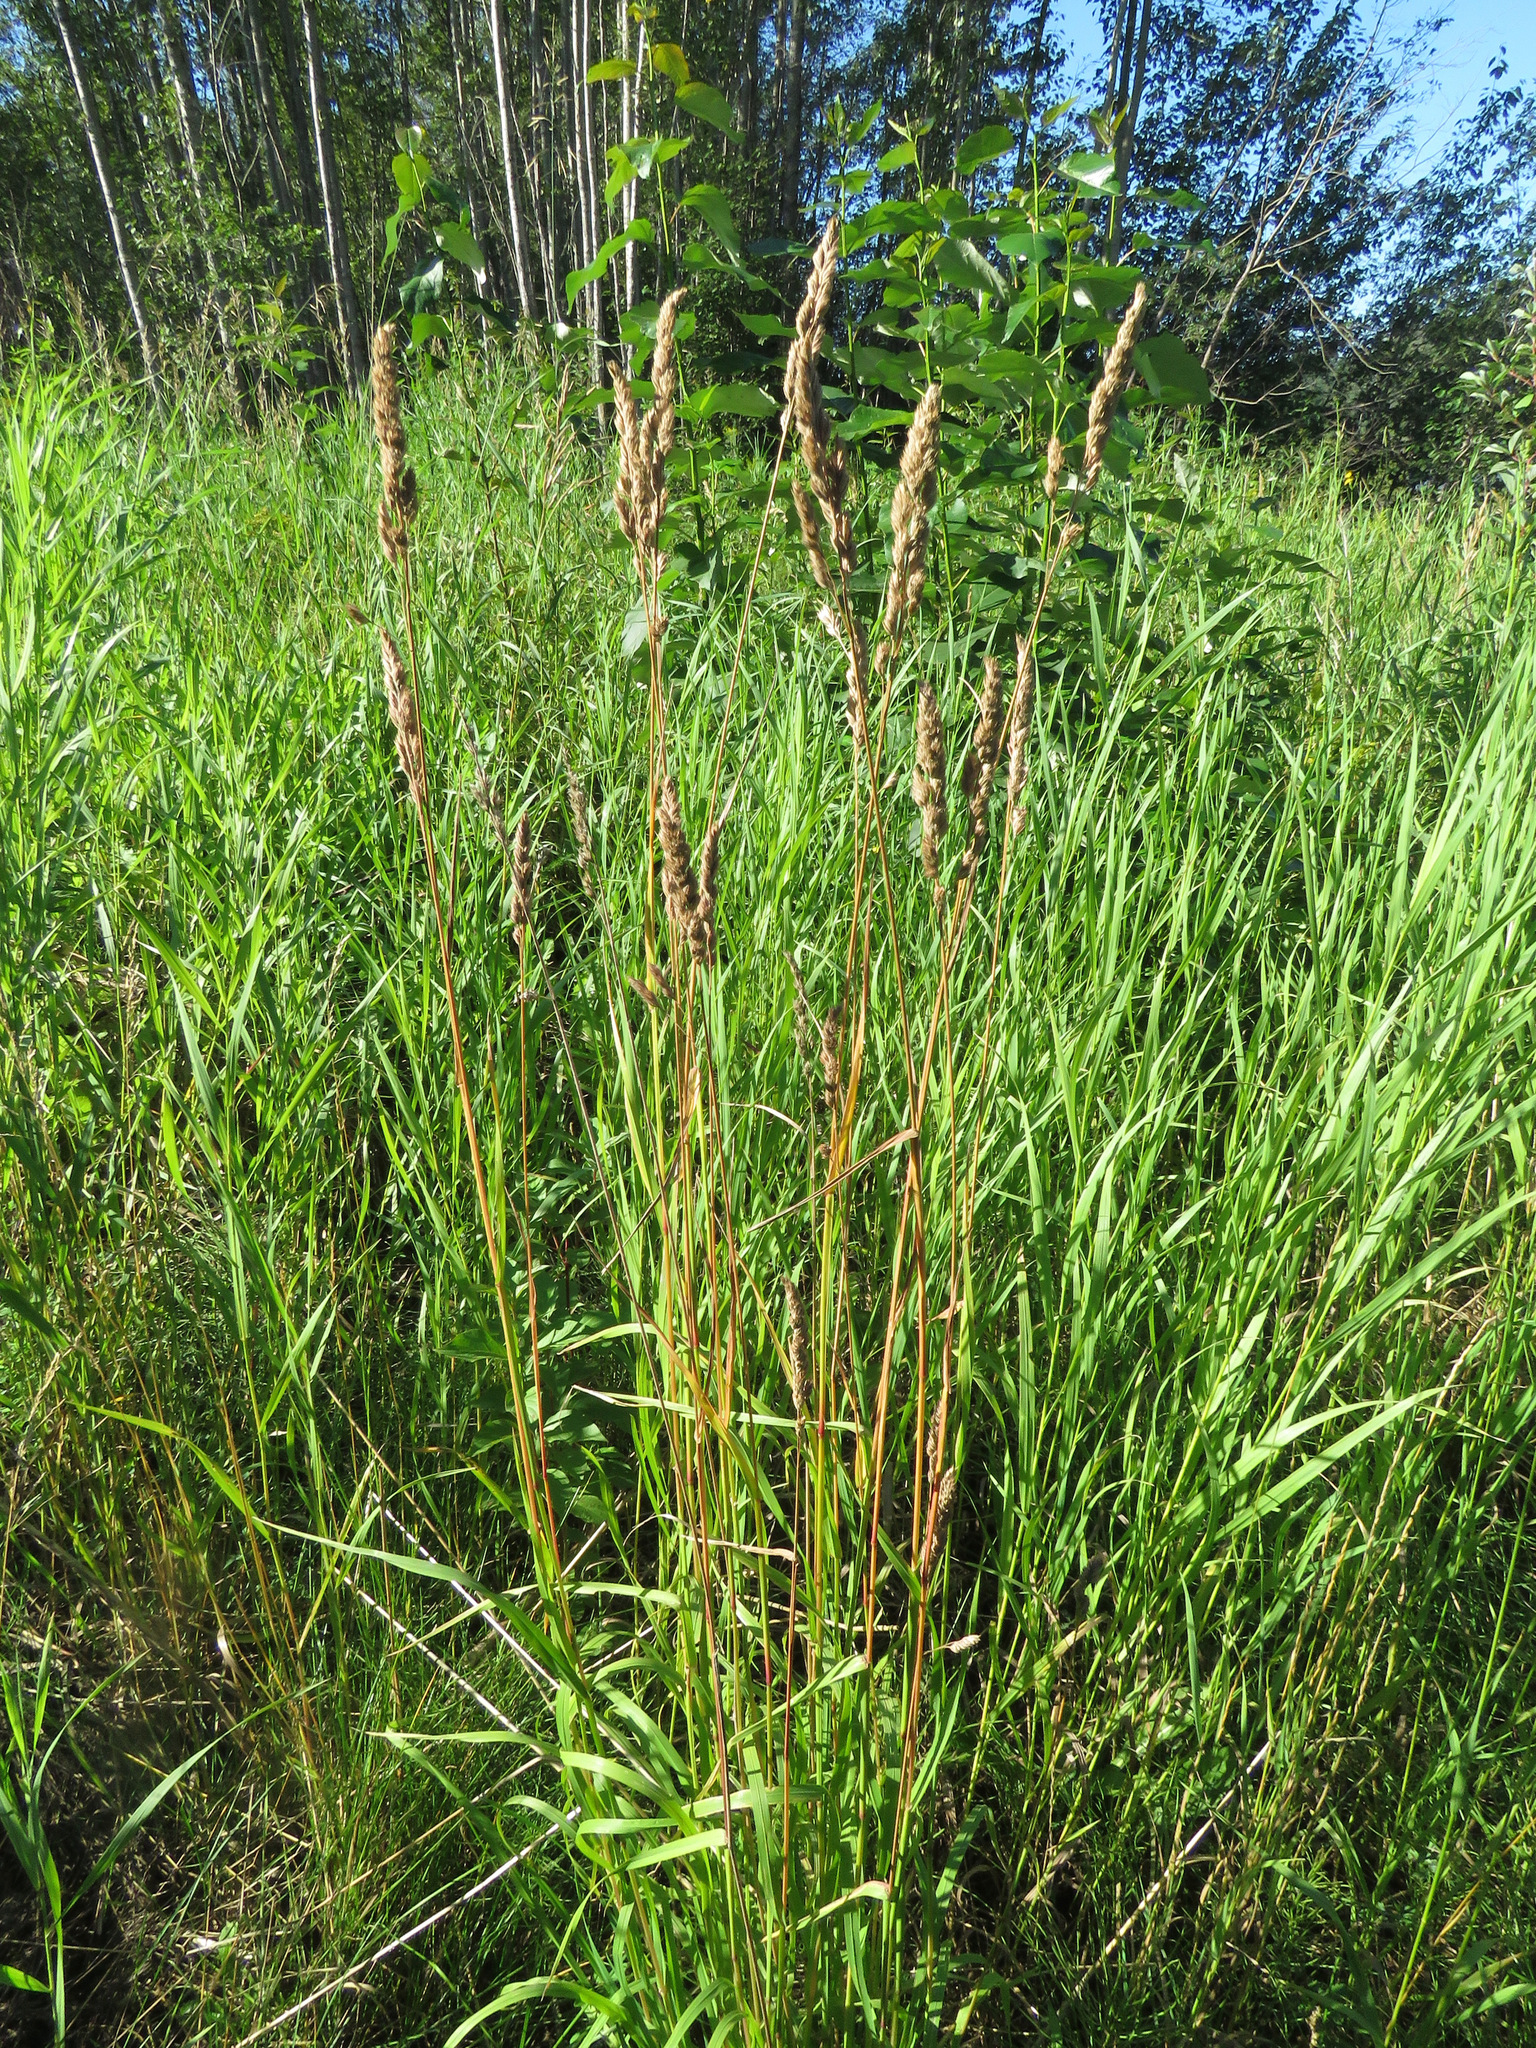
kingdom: Plantae
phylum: Tracheophyta
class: Liliopsida
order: Poales
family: Poaceae
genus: Dactylis
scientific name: Dactylis glomerata
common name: Orchardgrass
